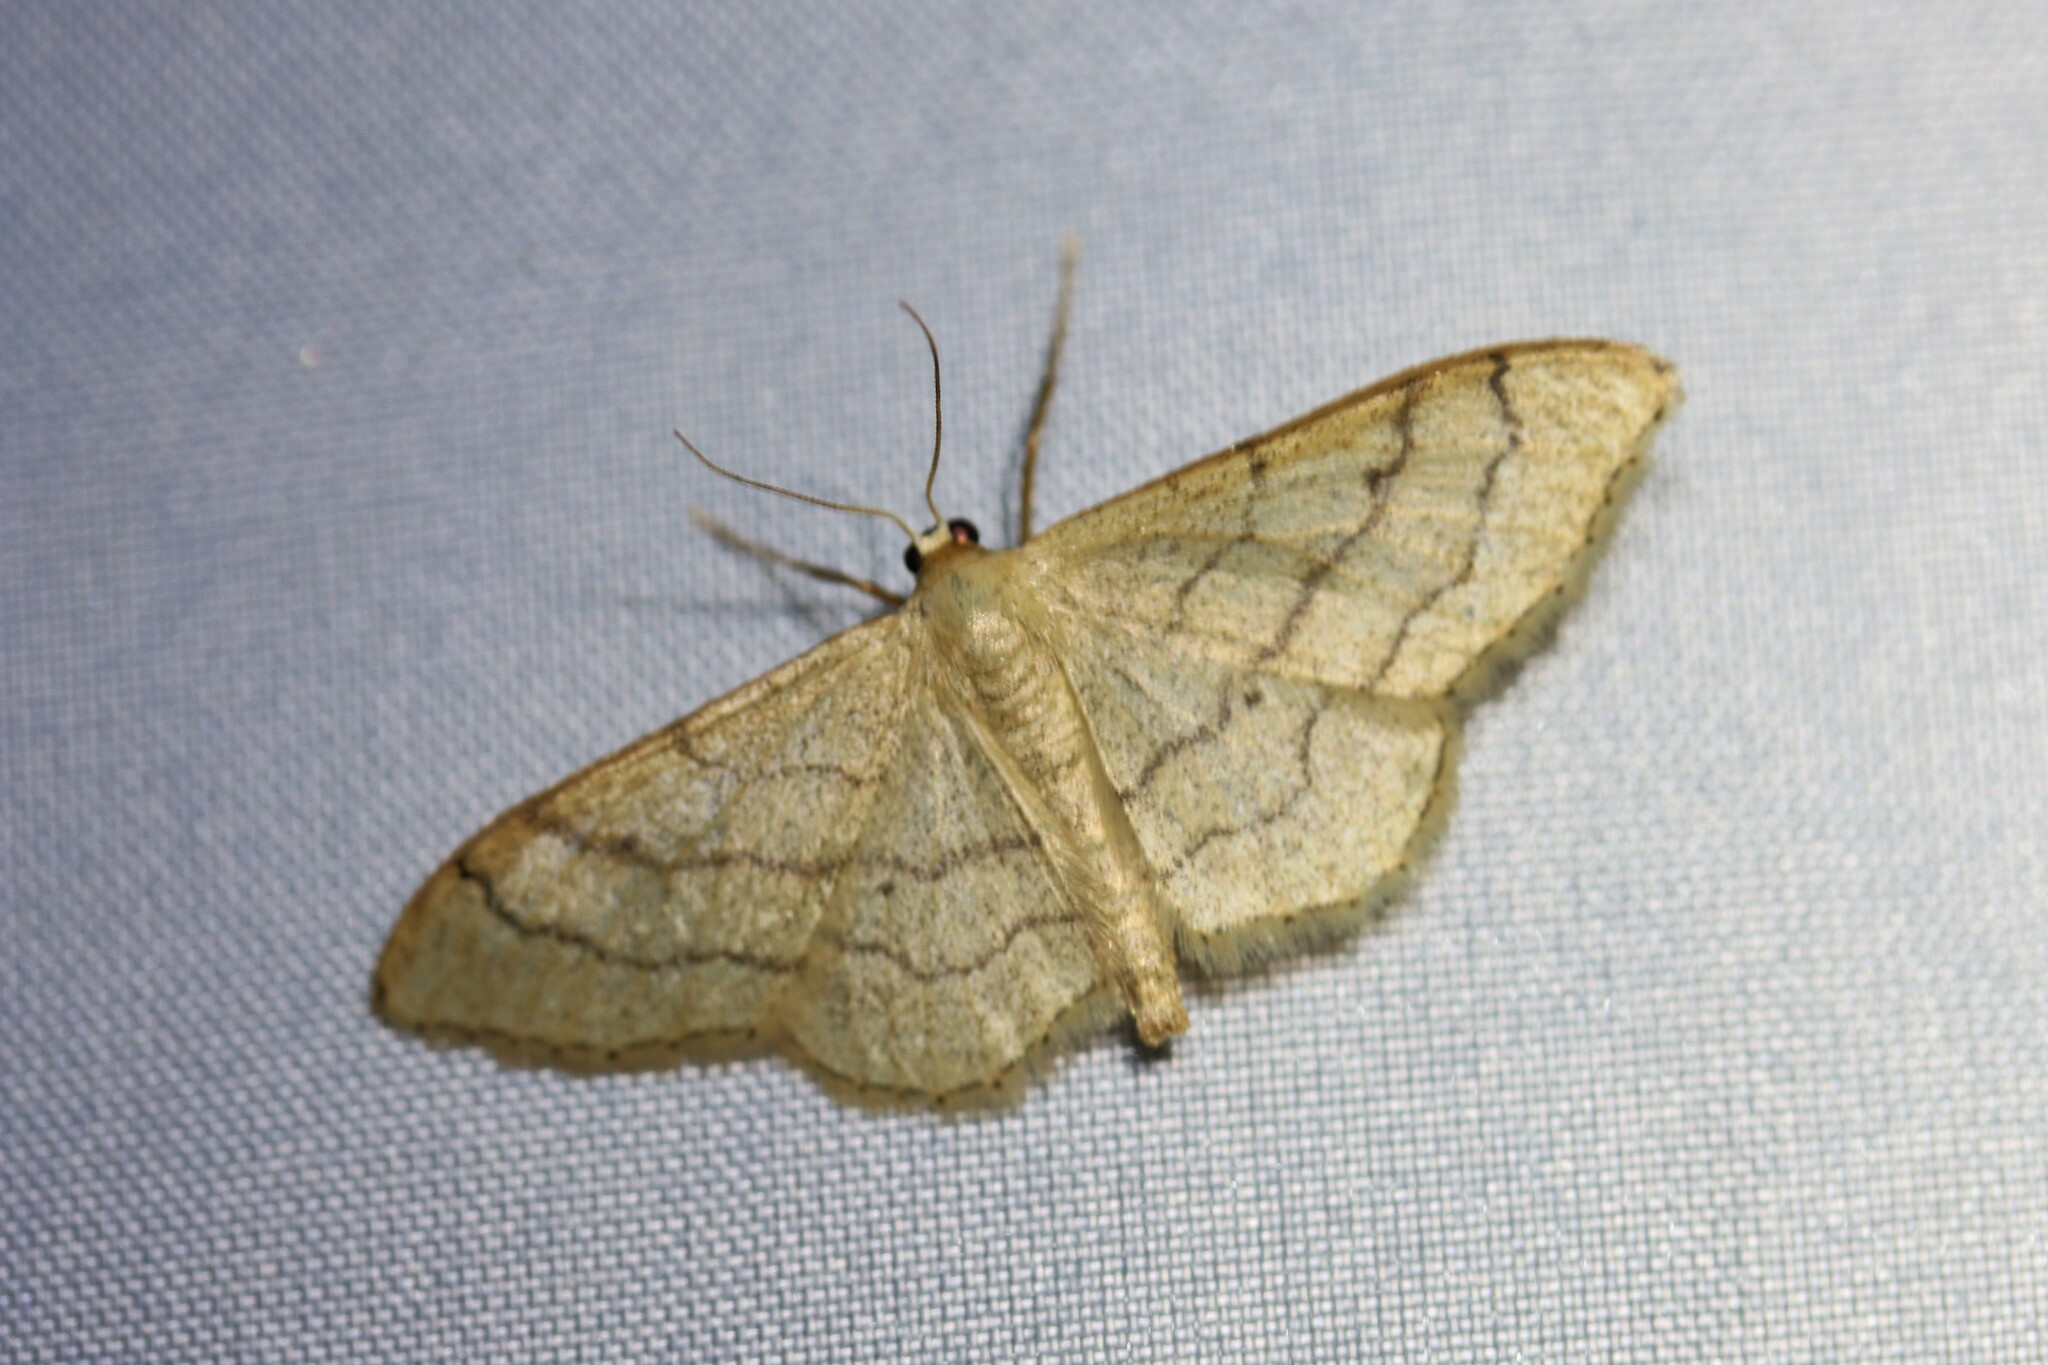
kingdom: Animalia
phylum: Arthropoda
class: Insecta
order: Lepidoptera
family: Geometridae
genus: Idaea
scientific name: Idaea aversata
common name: Riband wave
